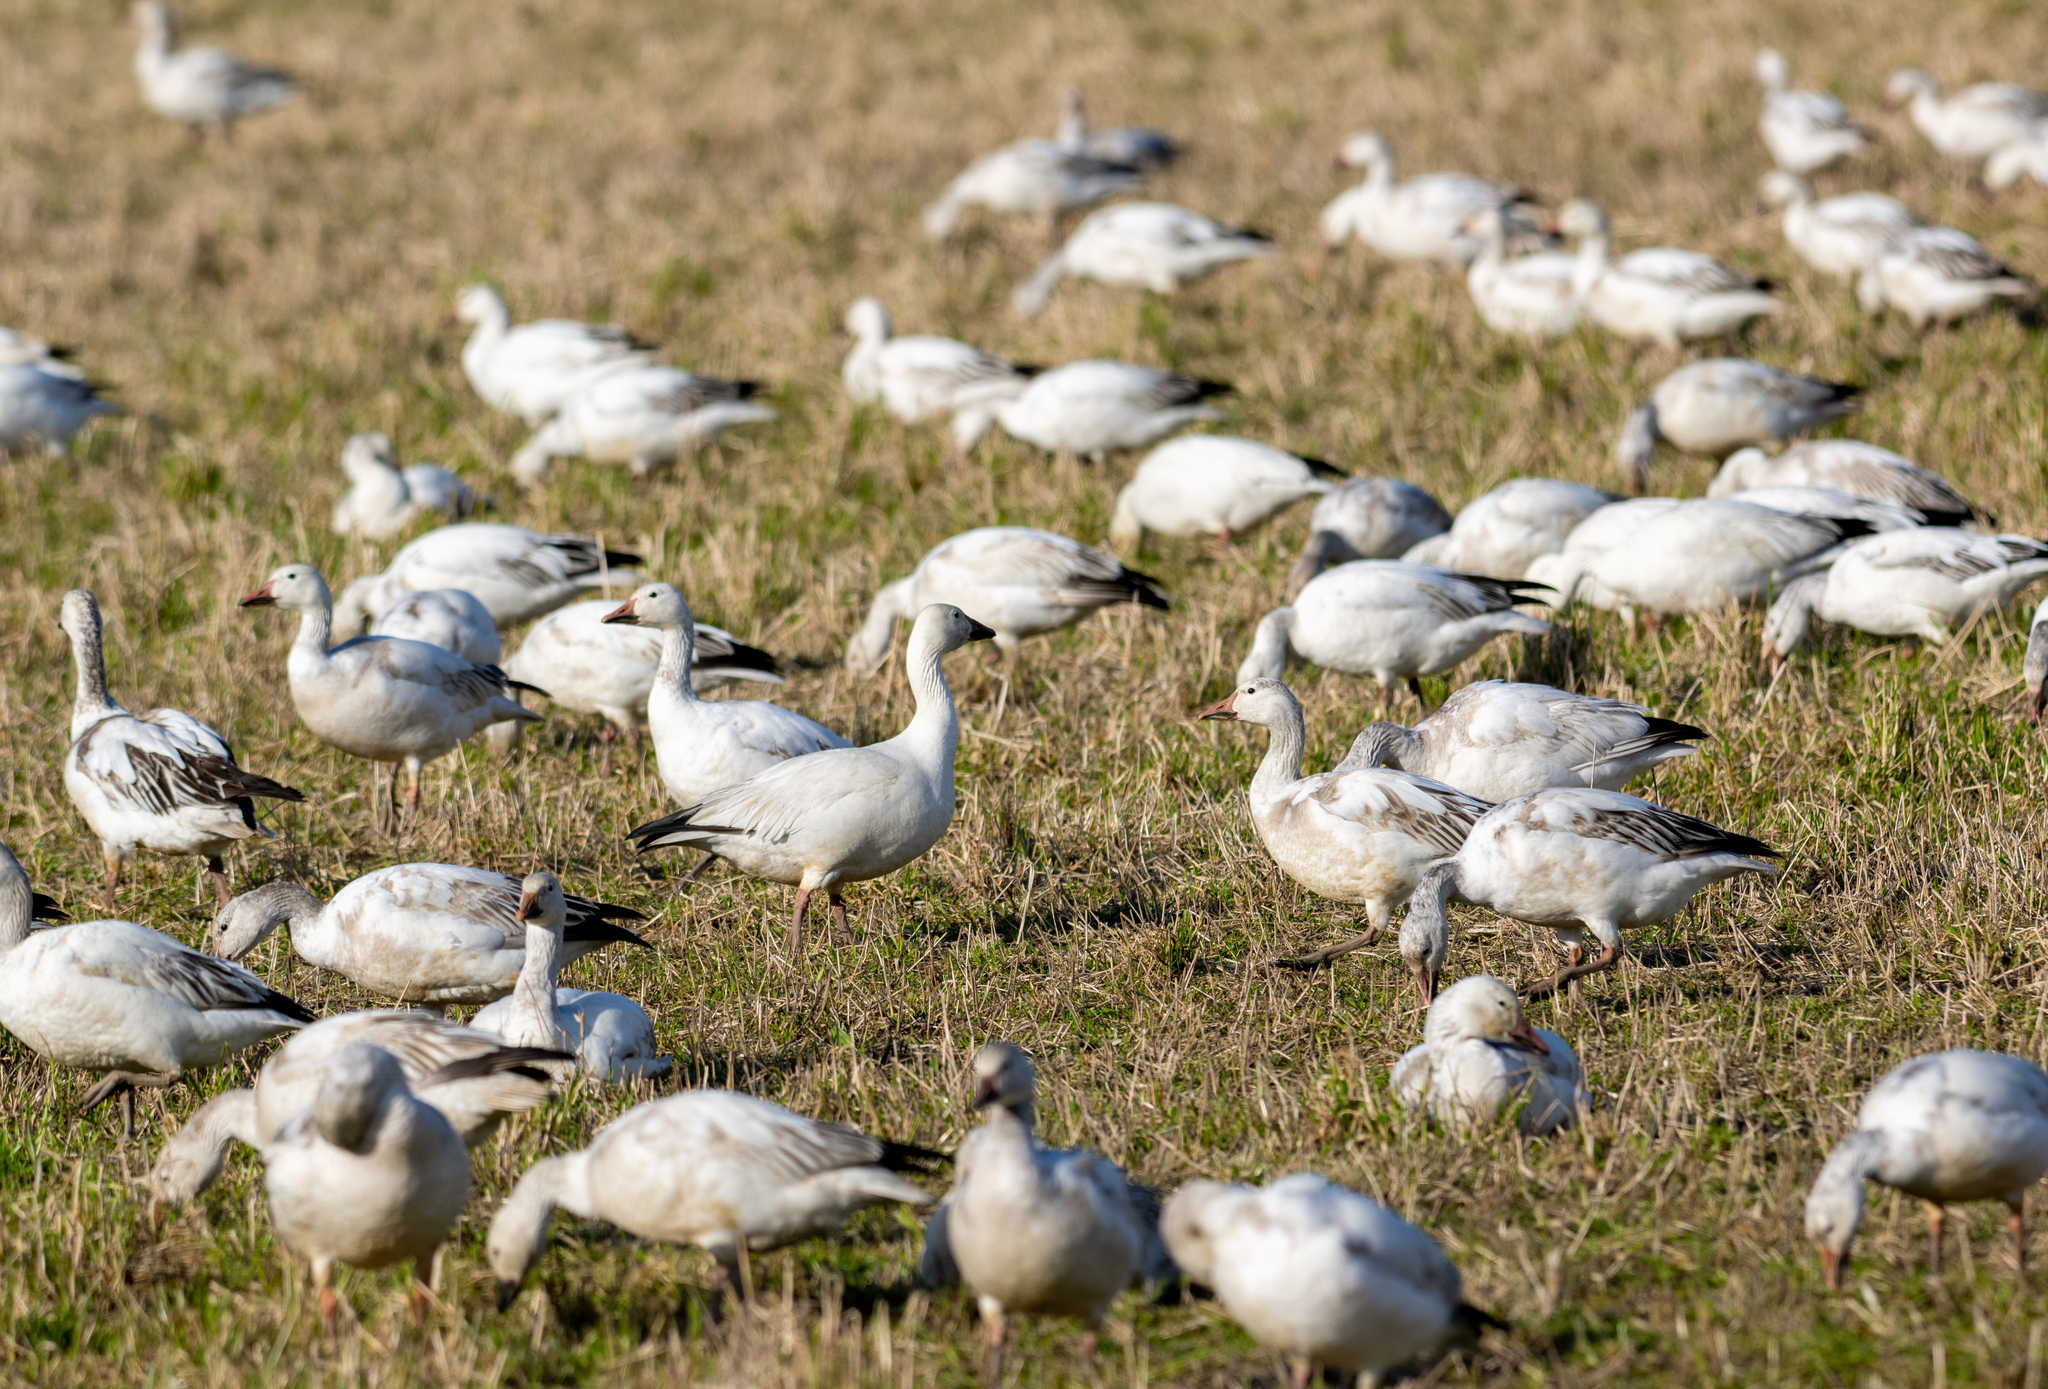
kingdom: Animalia
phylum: Chordata
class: Aves
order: Anseriformes
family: Anatidae
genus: Anser
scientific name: Anser caerulescens
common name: Snow goose
